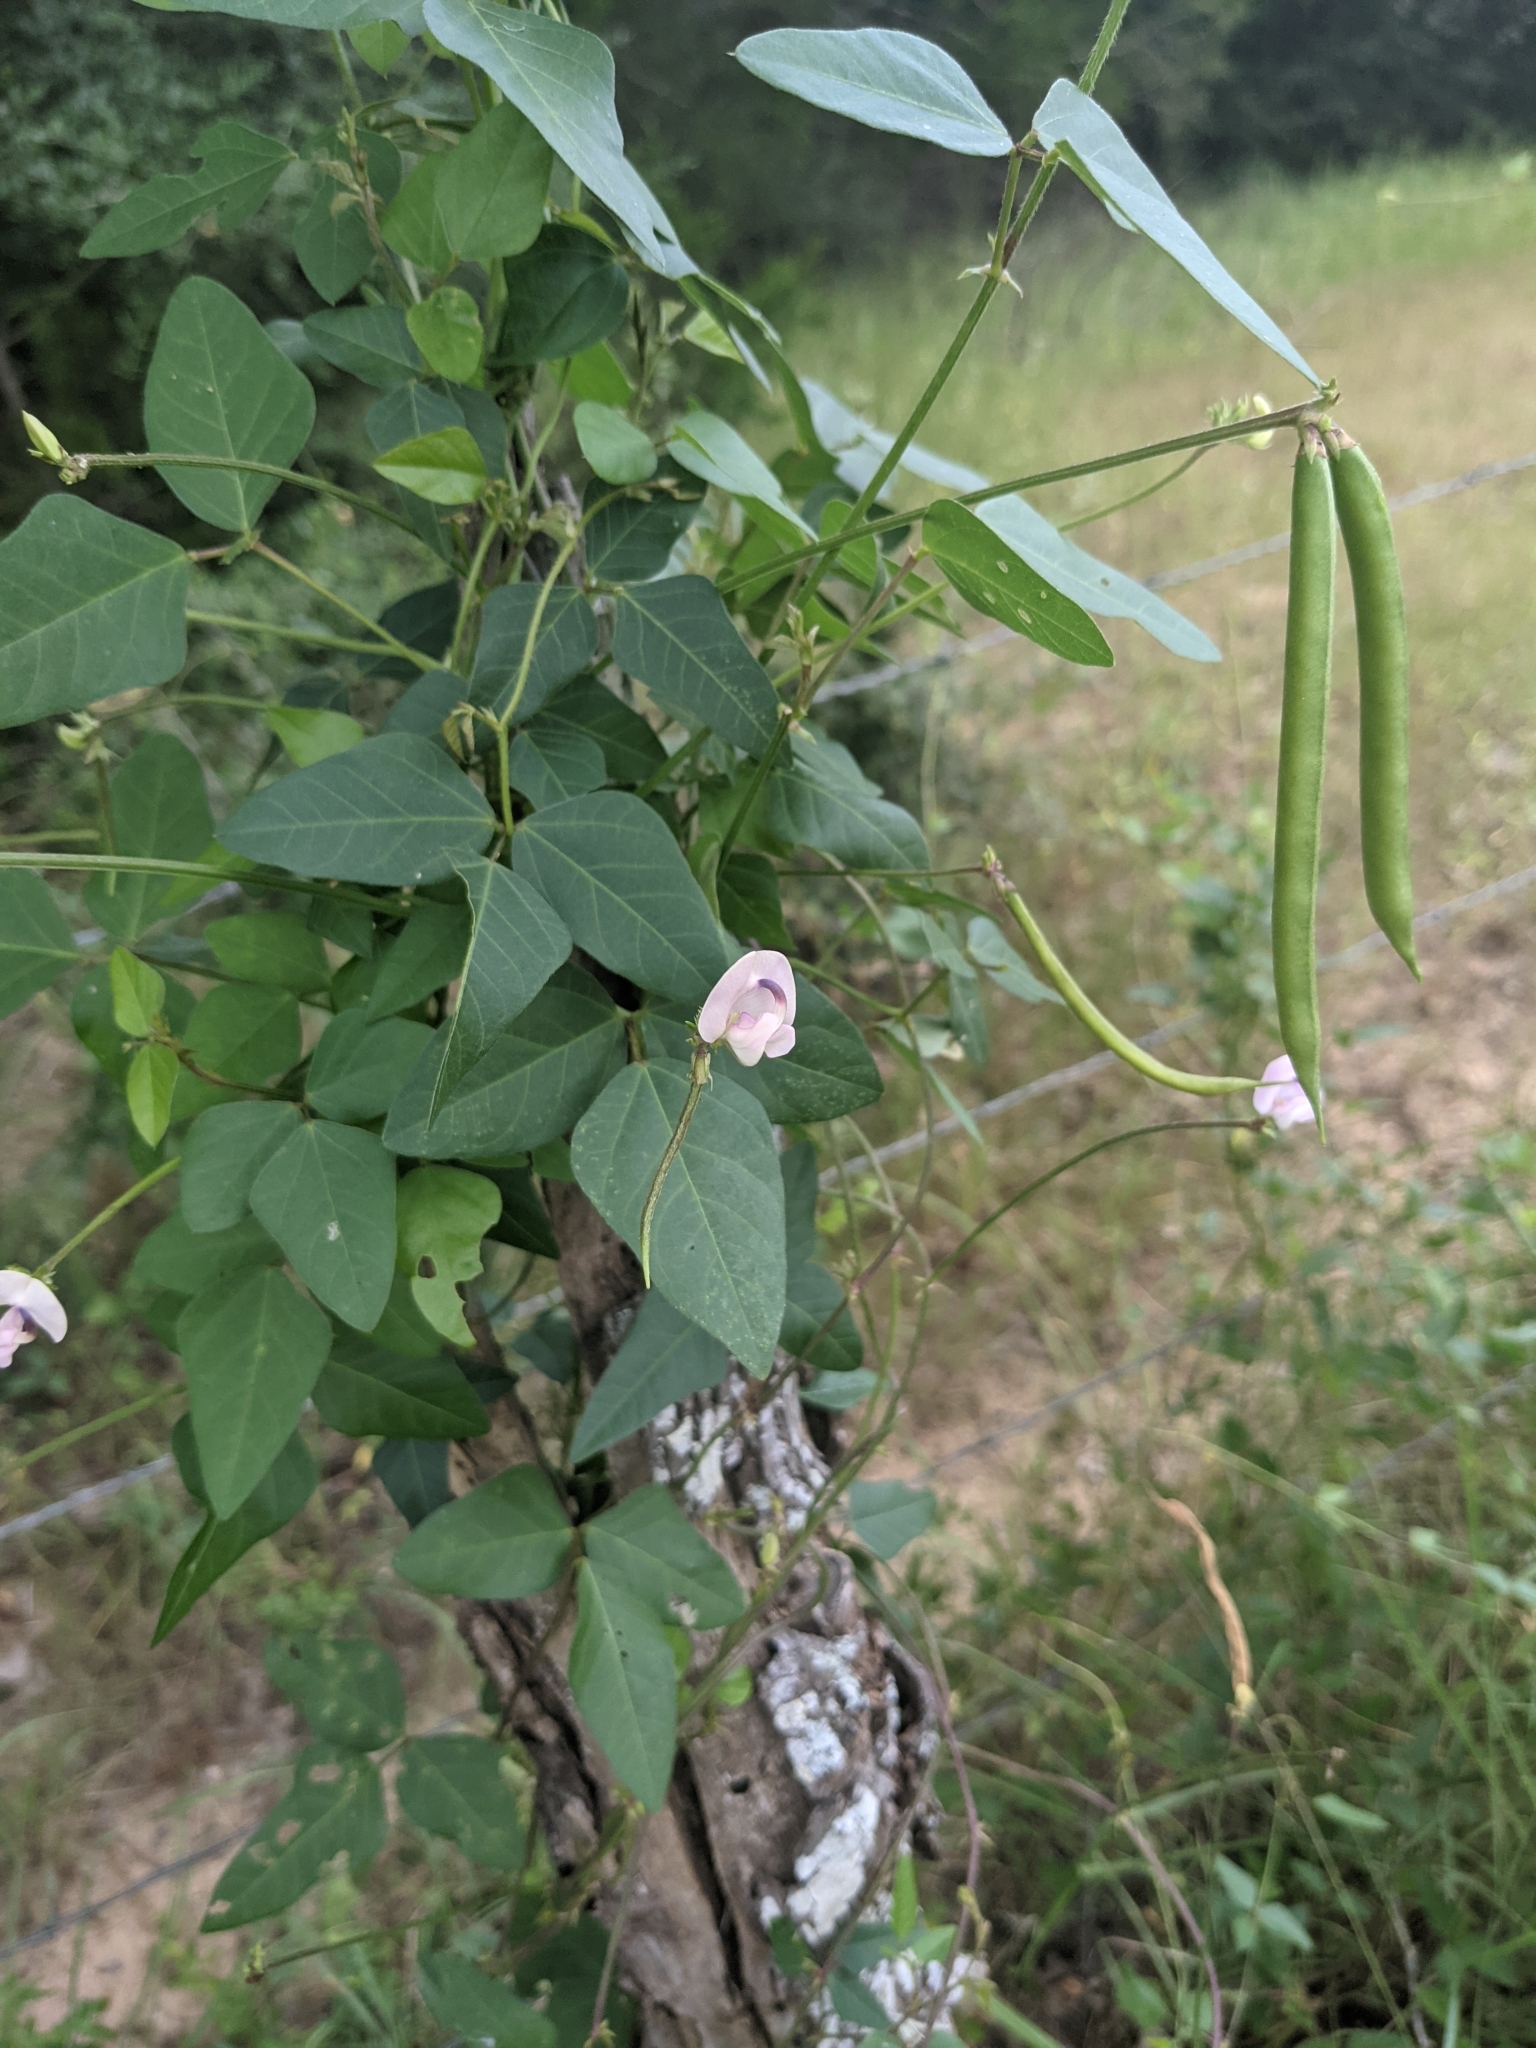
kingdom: Plantae
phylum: Tracheophyta
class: Magnoliopsida
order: Fabales
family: Fabaceae
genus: Strophostyles
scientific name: Strophostyles helvola
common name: Trailing wild bean
